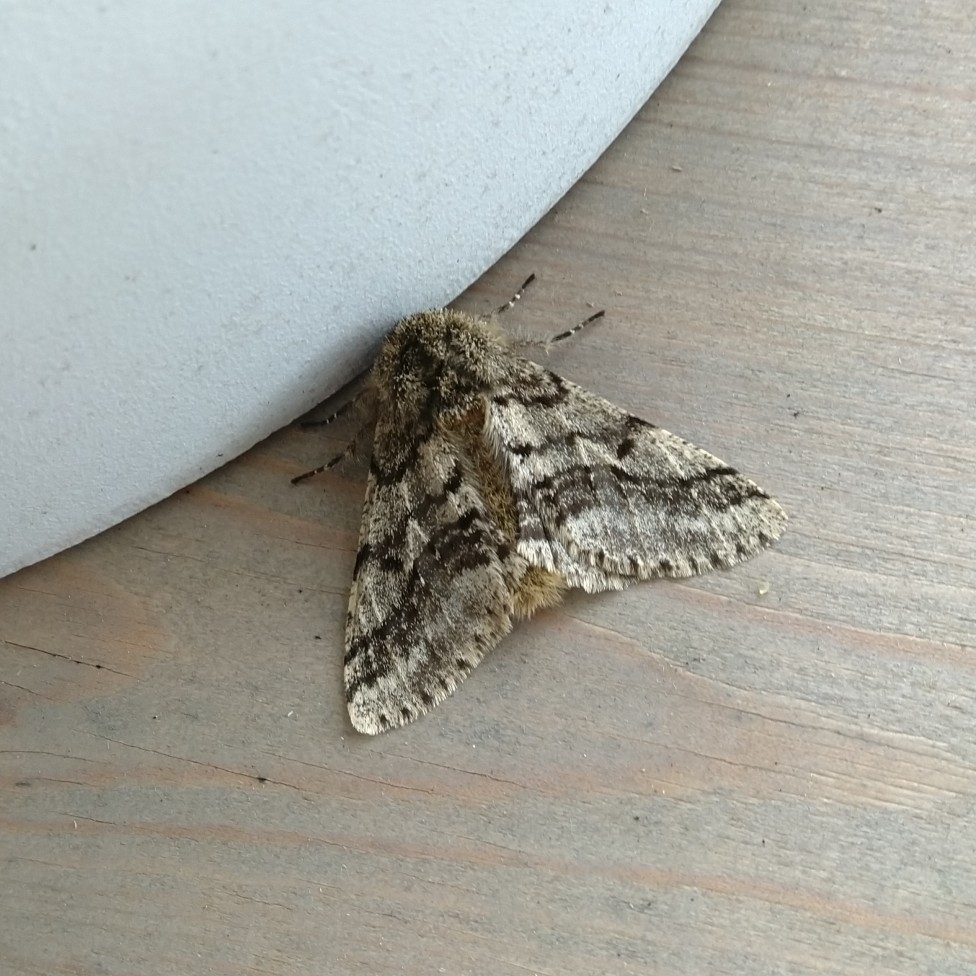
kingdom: Animalia
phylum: Arthropoda
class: Insecta
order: Lepidoptera
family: Geometridae
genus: Lycia
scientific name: Lycia hirtaria
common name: Brindled beauty
